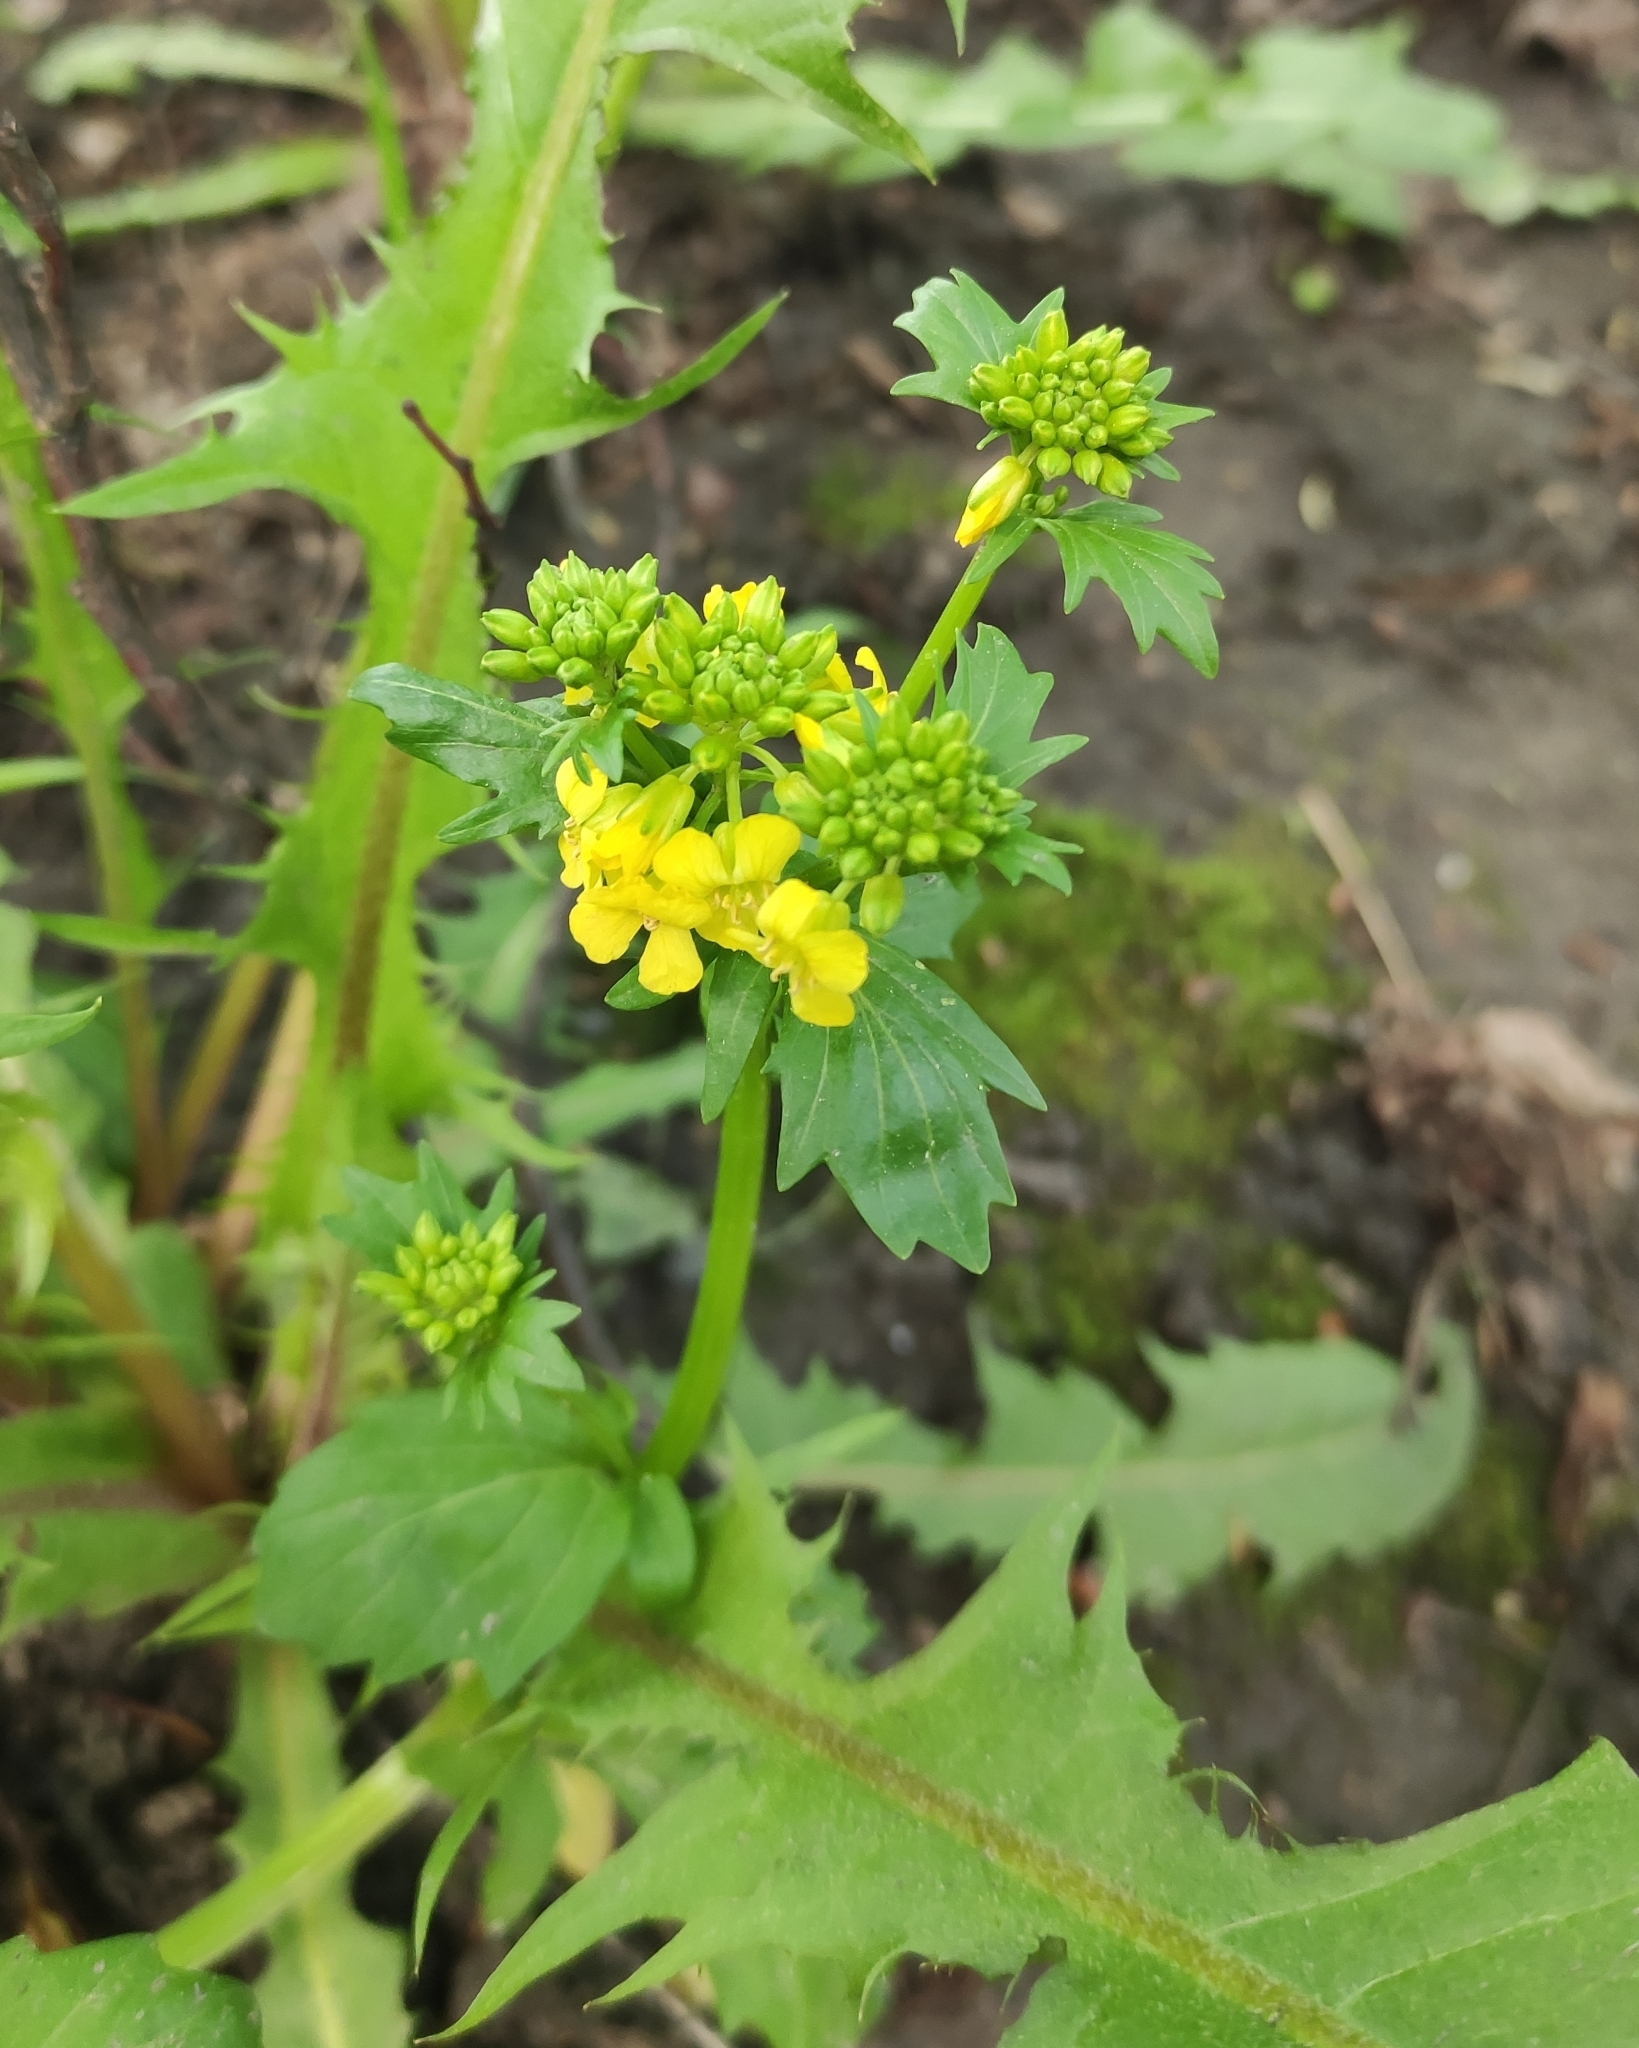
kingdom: Plantae
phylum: Tracheophyta
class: Magnoliopsida
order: Brassicales
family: Brassicaceae
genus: Barbarea
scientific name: Barbarea vulgaris
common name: Cressy-greens
